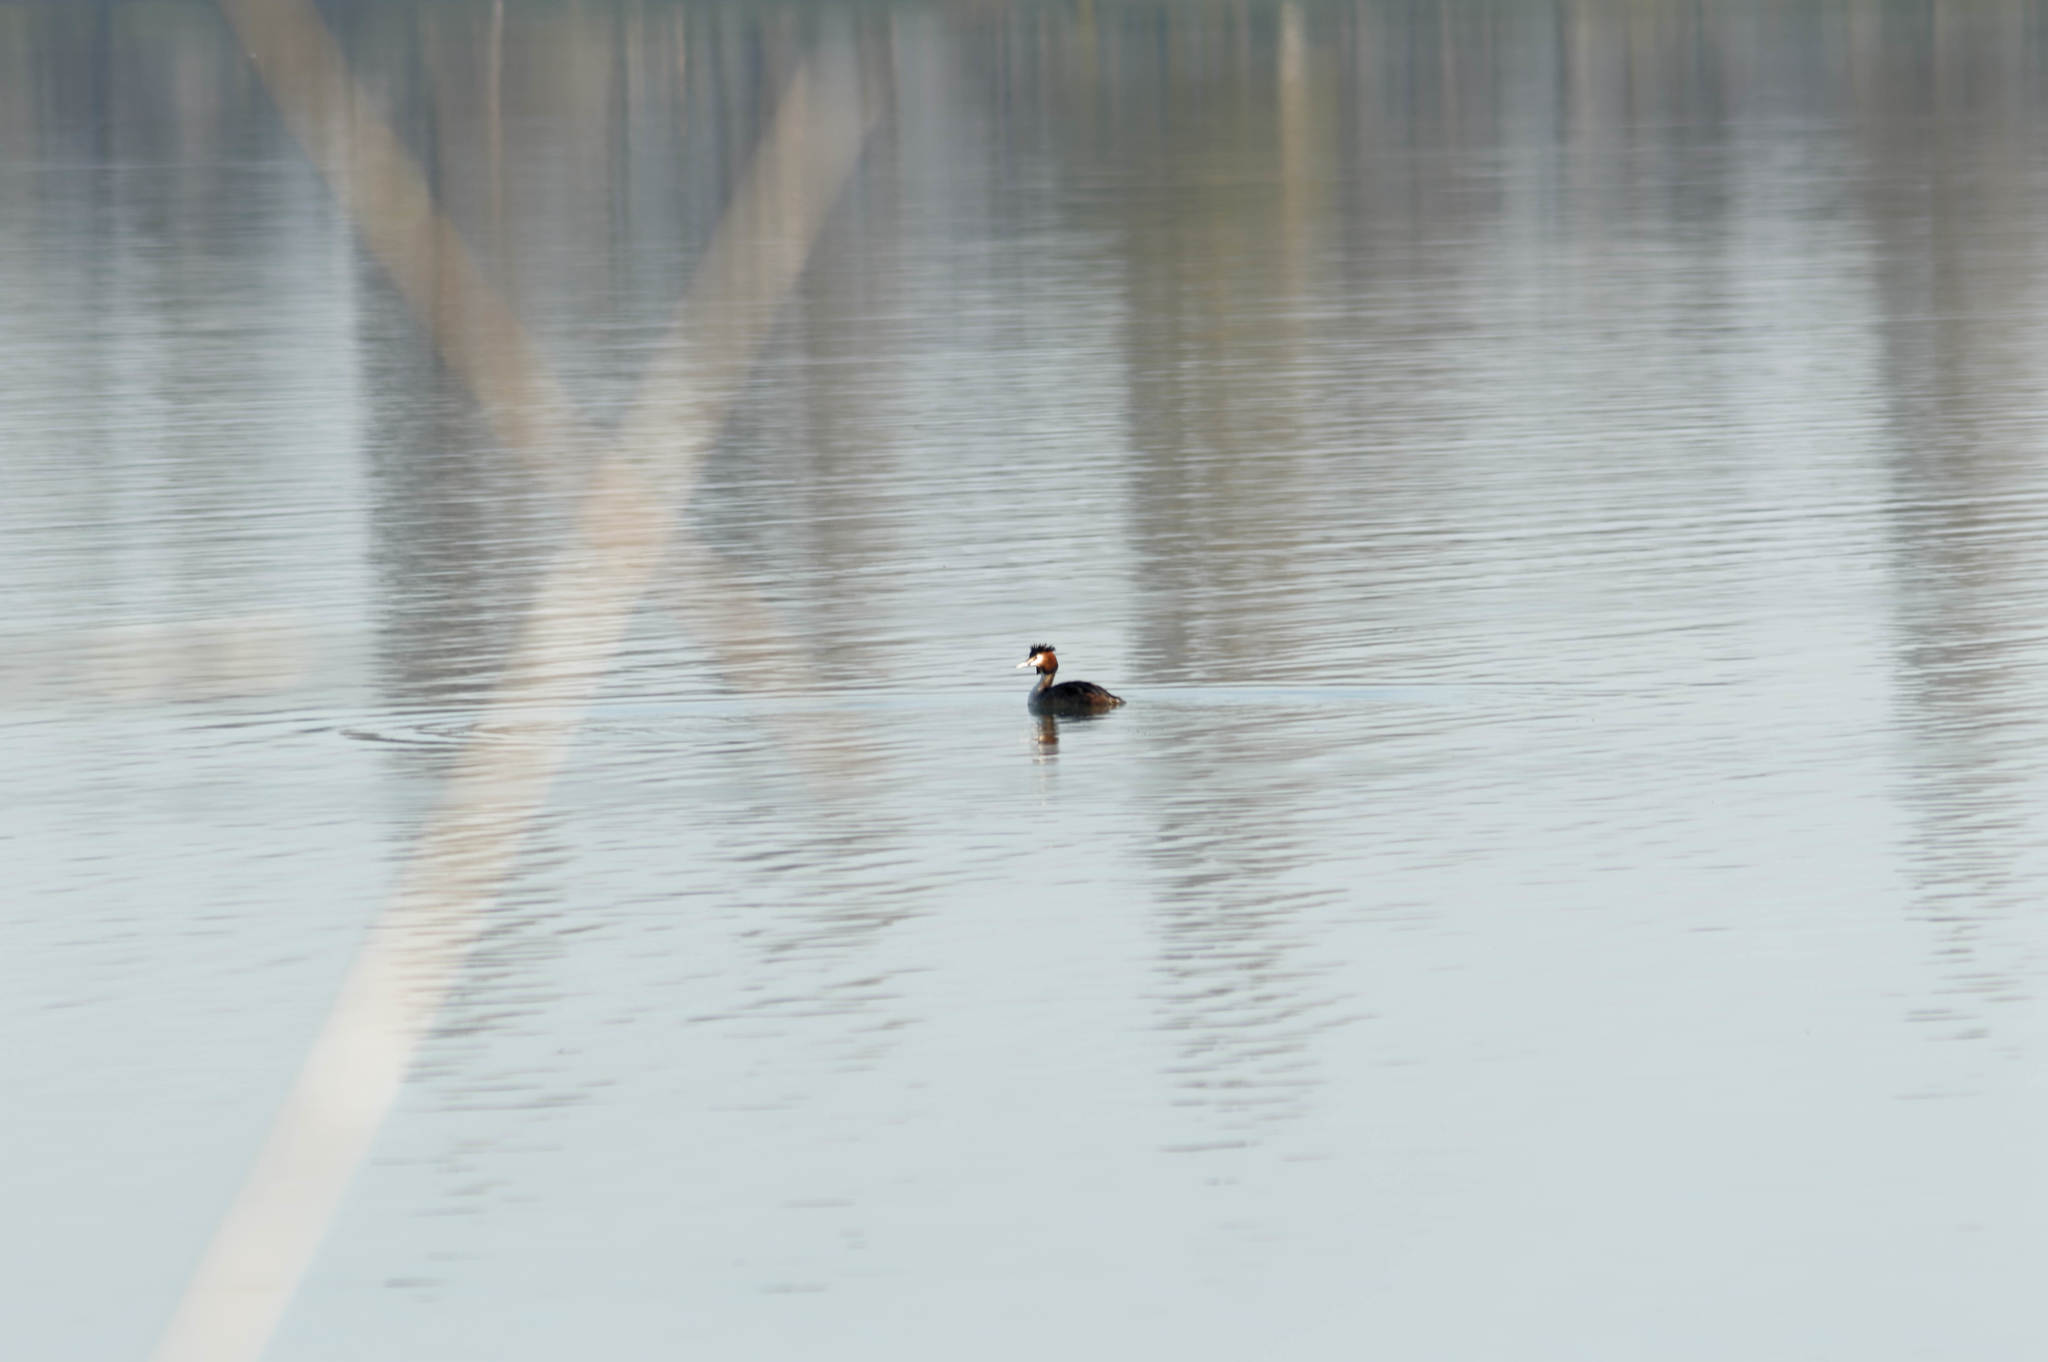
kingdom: Animalia
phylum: Chordata
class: Aves
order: Podicipediformes
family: Podicipedidae
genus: Podiceps
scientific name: Podiceps cristatus
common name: Great crested grebe
